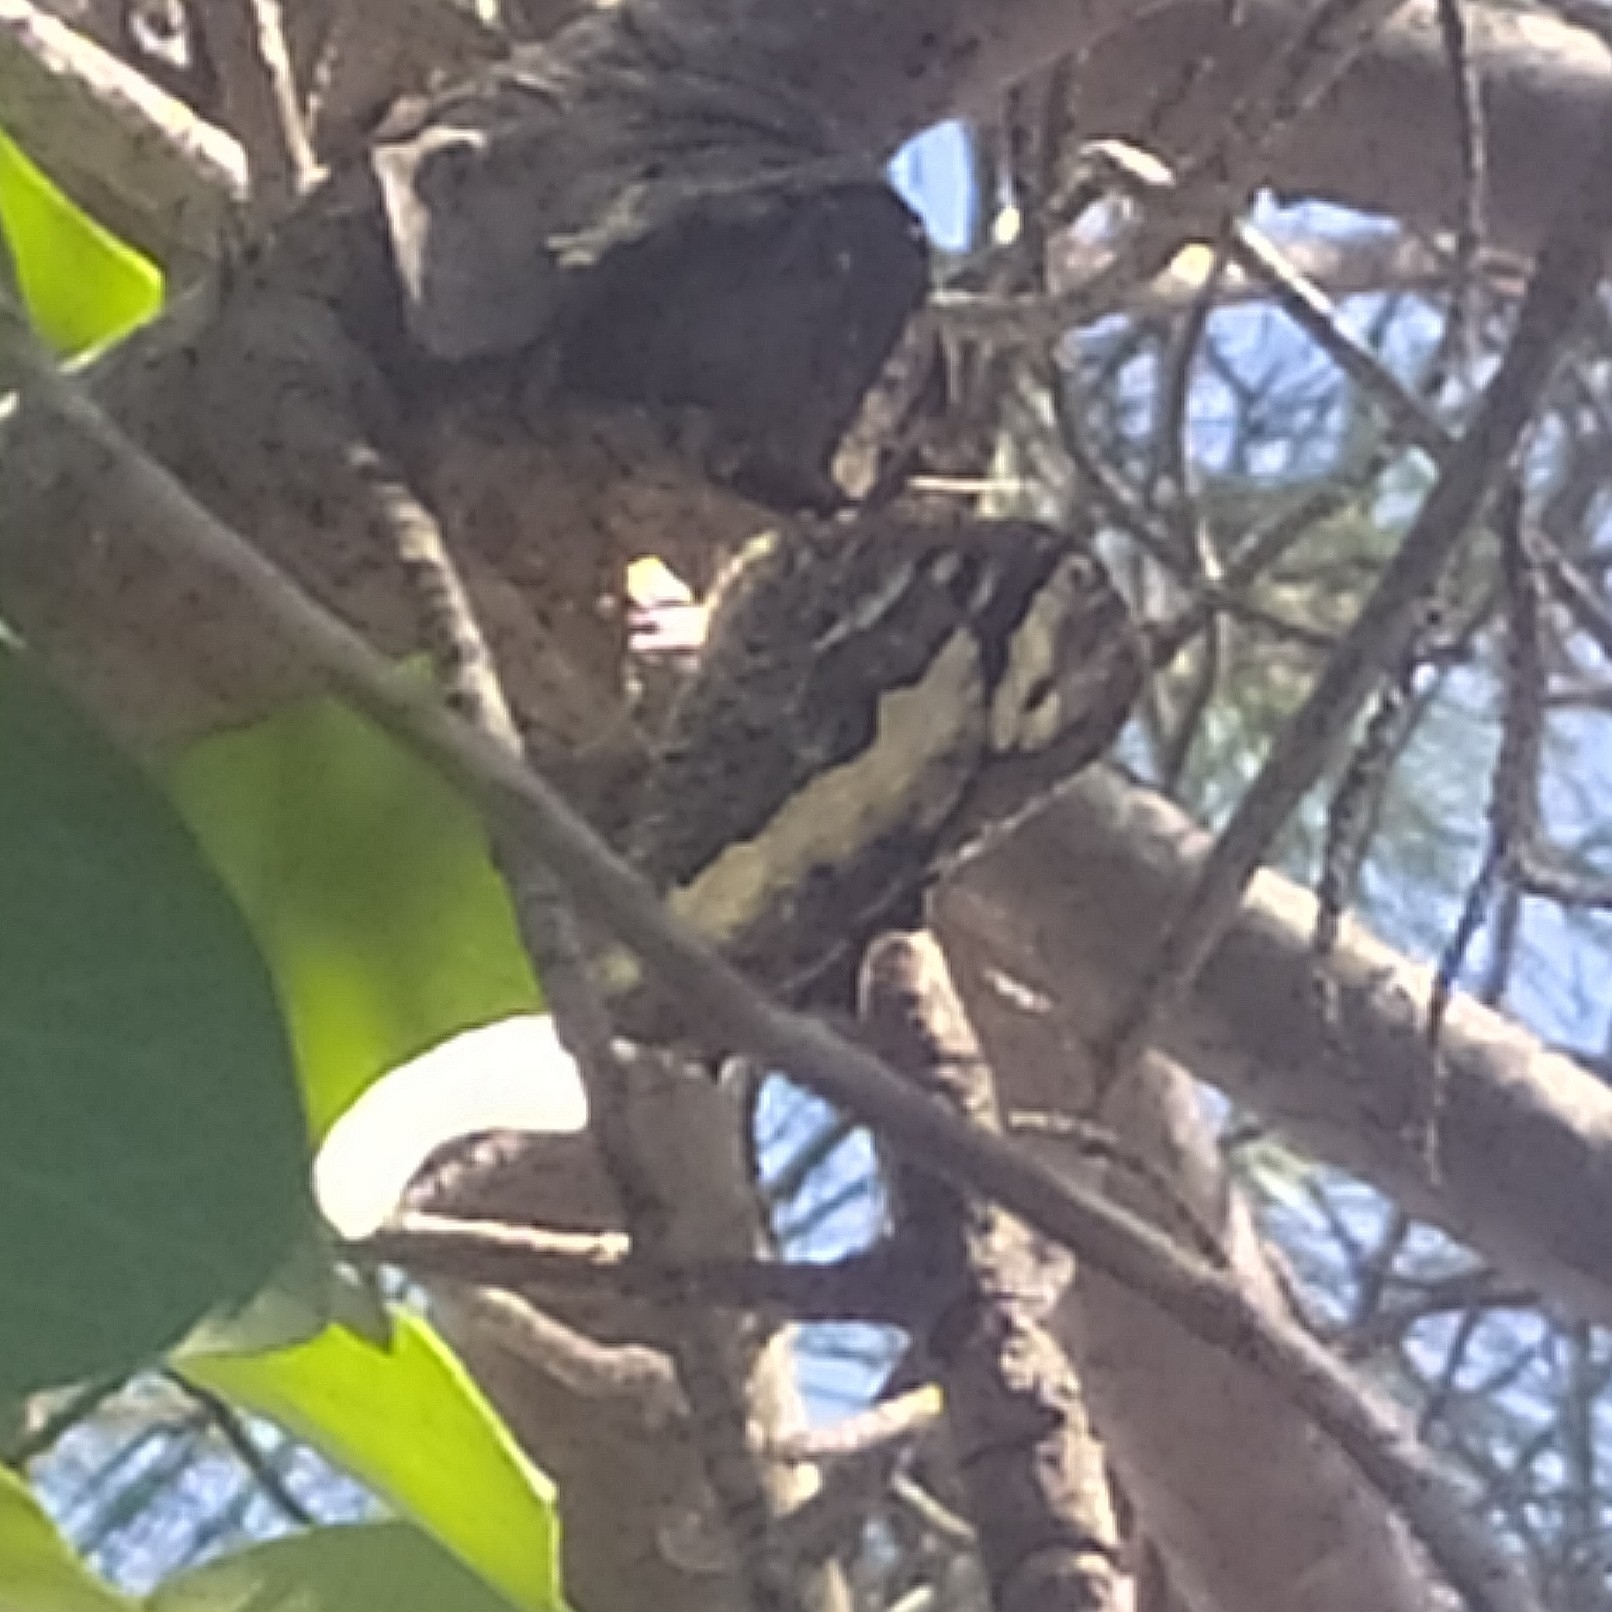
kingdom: Animalia
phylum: Arthropoda
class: Insecta
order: Lepidoptera
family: Lycaenidae
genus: Loweia
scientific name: Loweia tityrus
